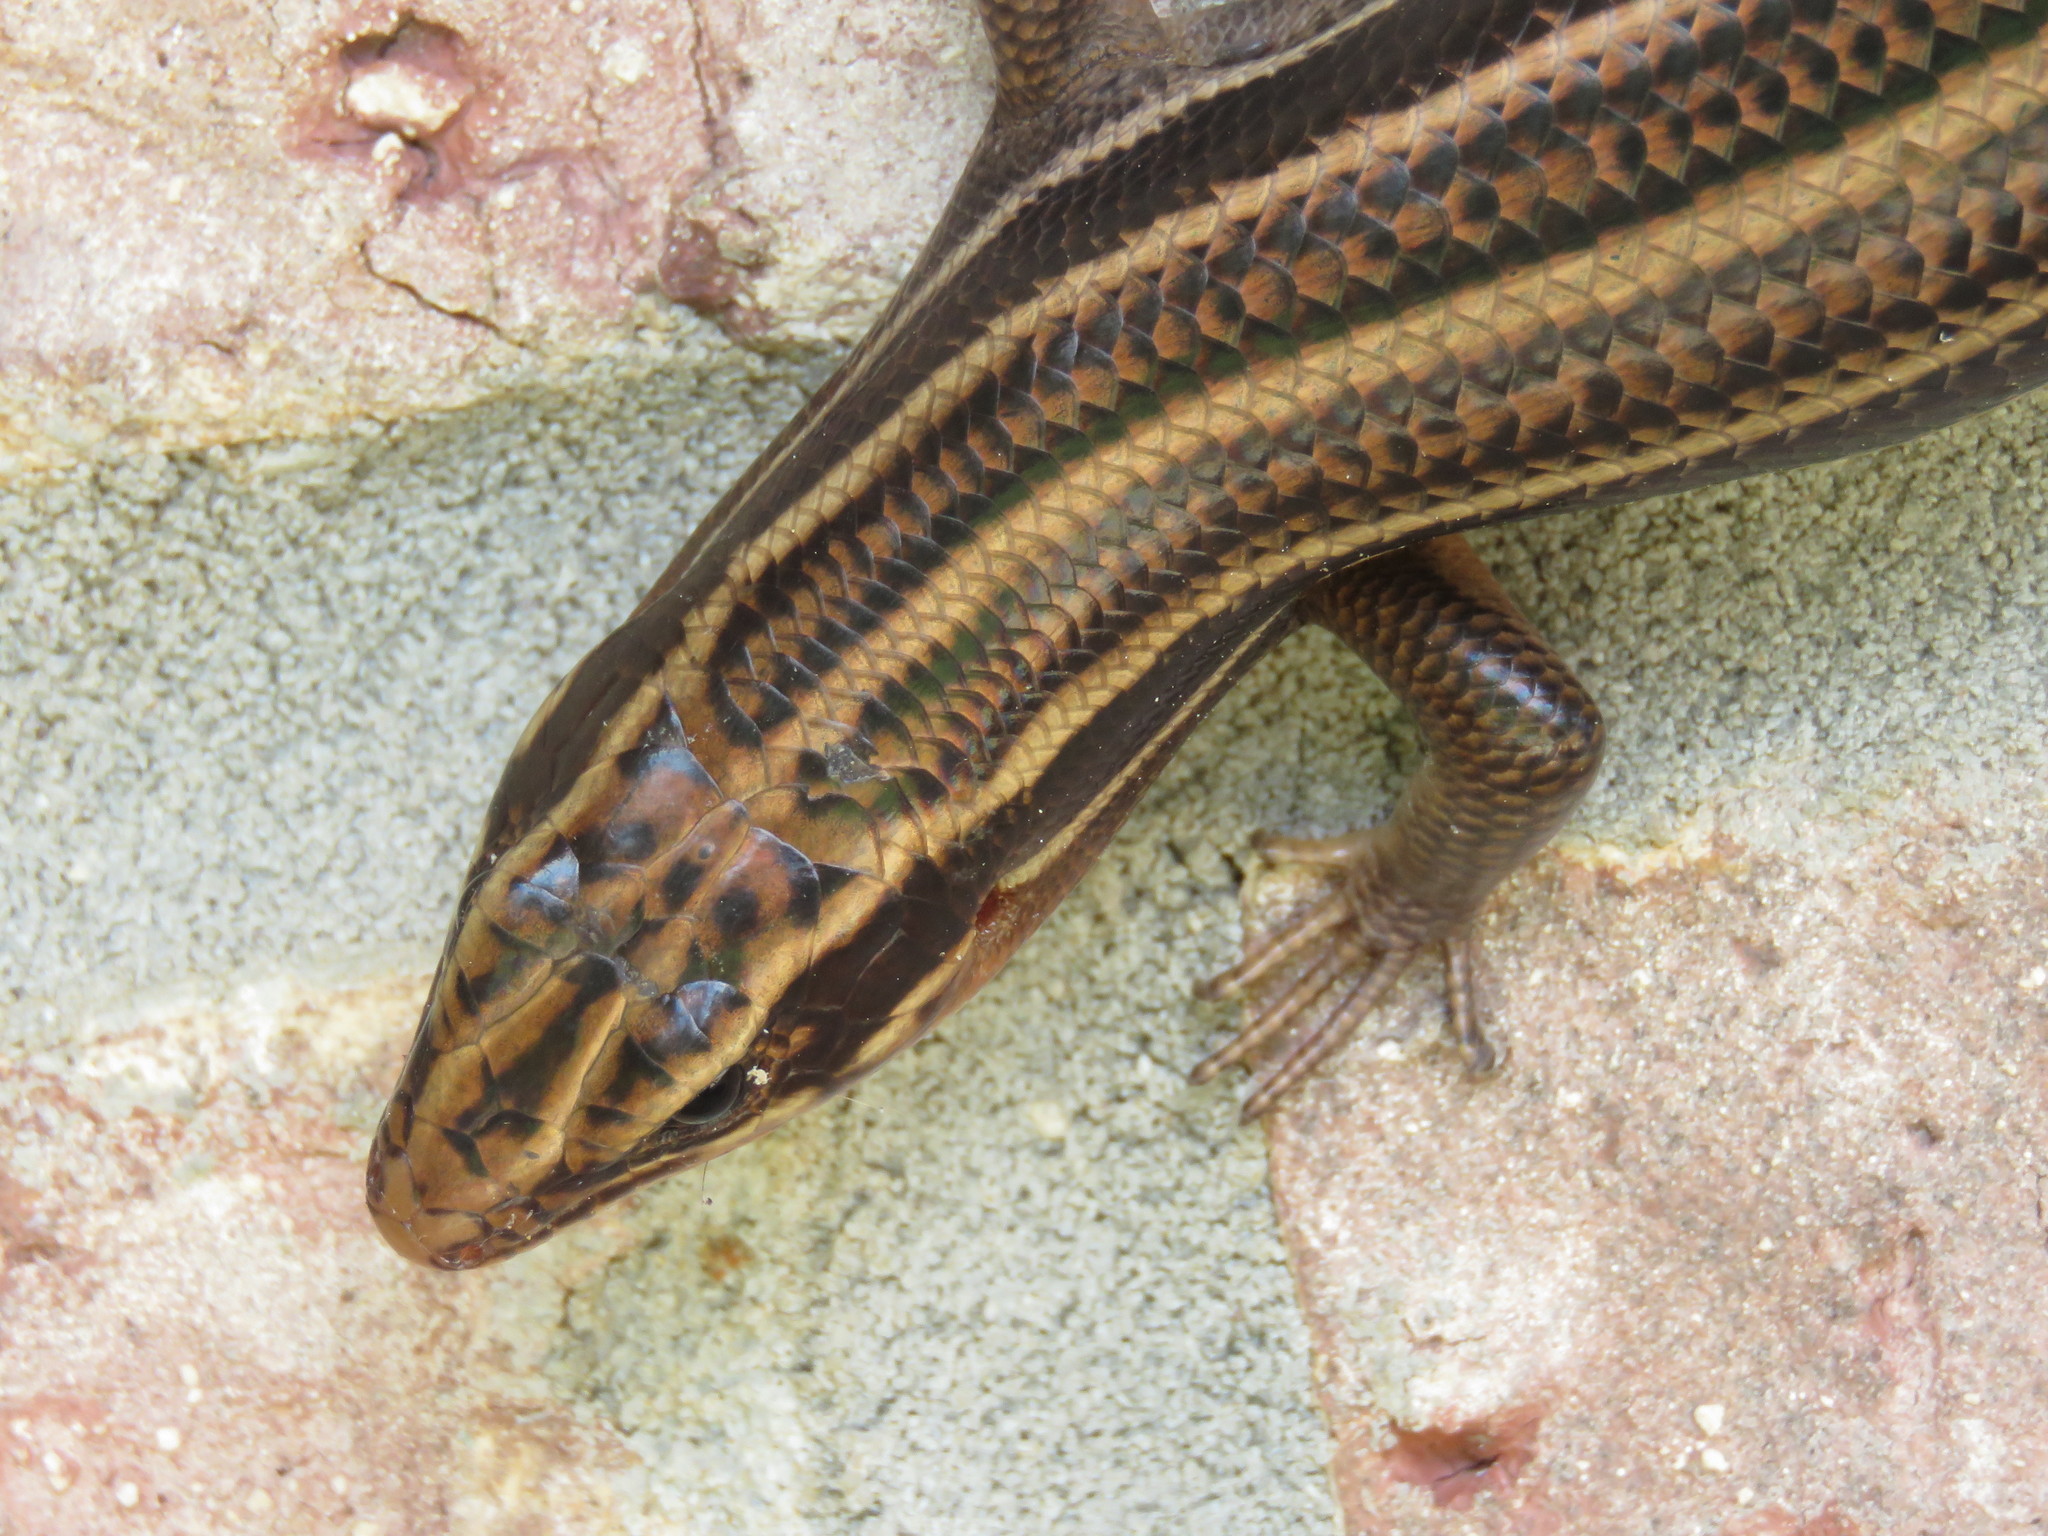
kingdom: Animalia
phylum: Chordata
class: Squamata
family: Scincidae
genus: Plestiodon
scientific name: Plestiodon fasciatus
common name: Five-lined skink
